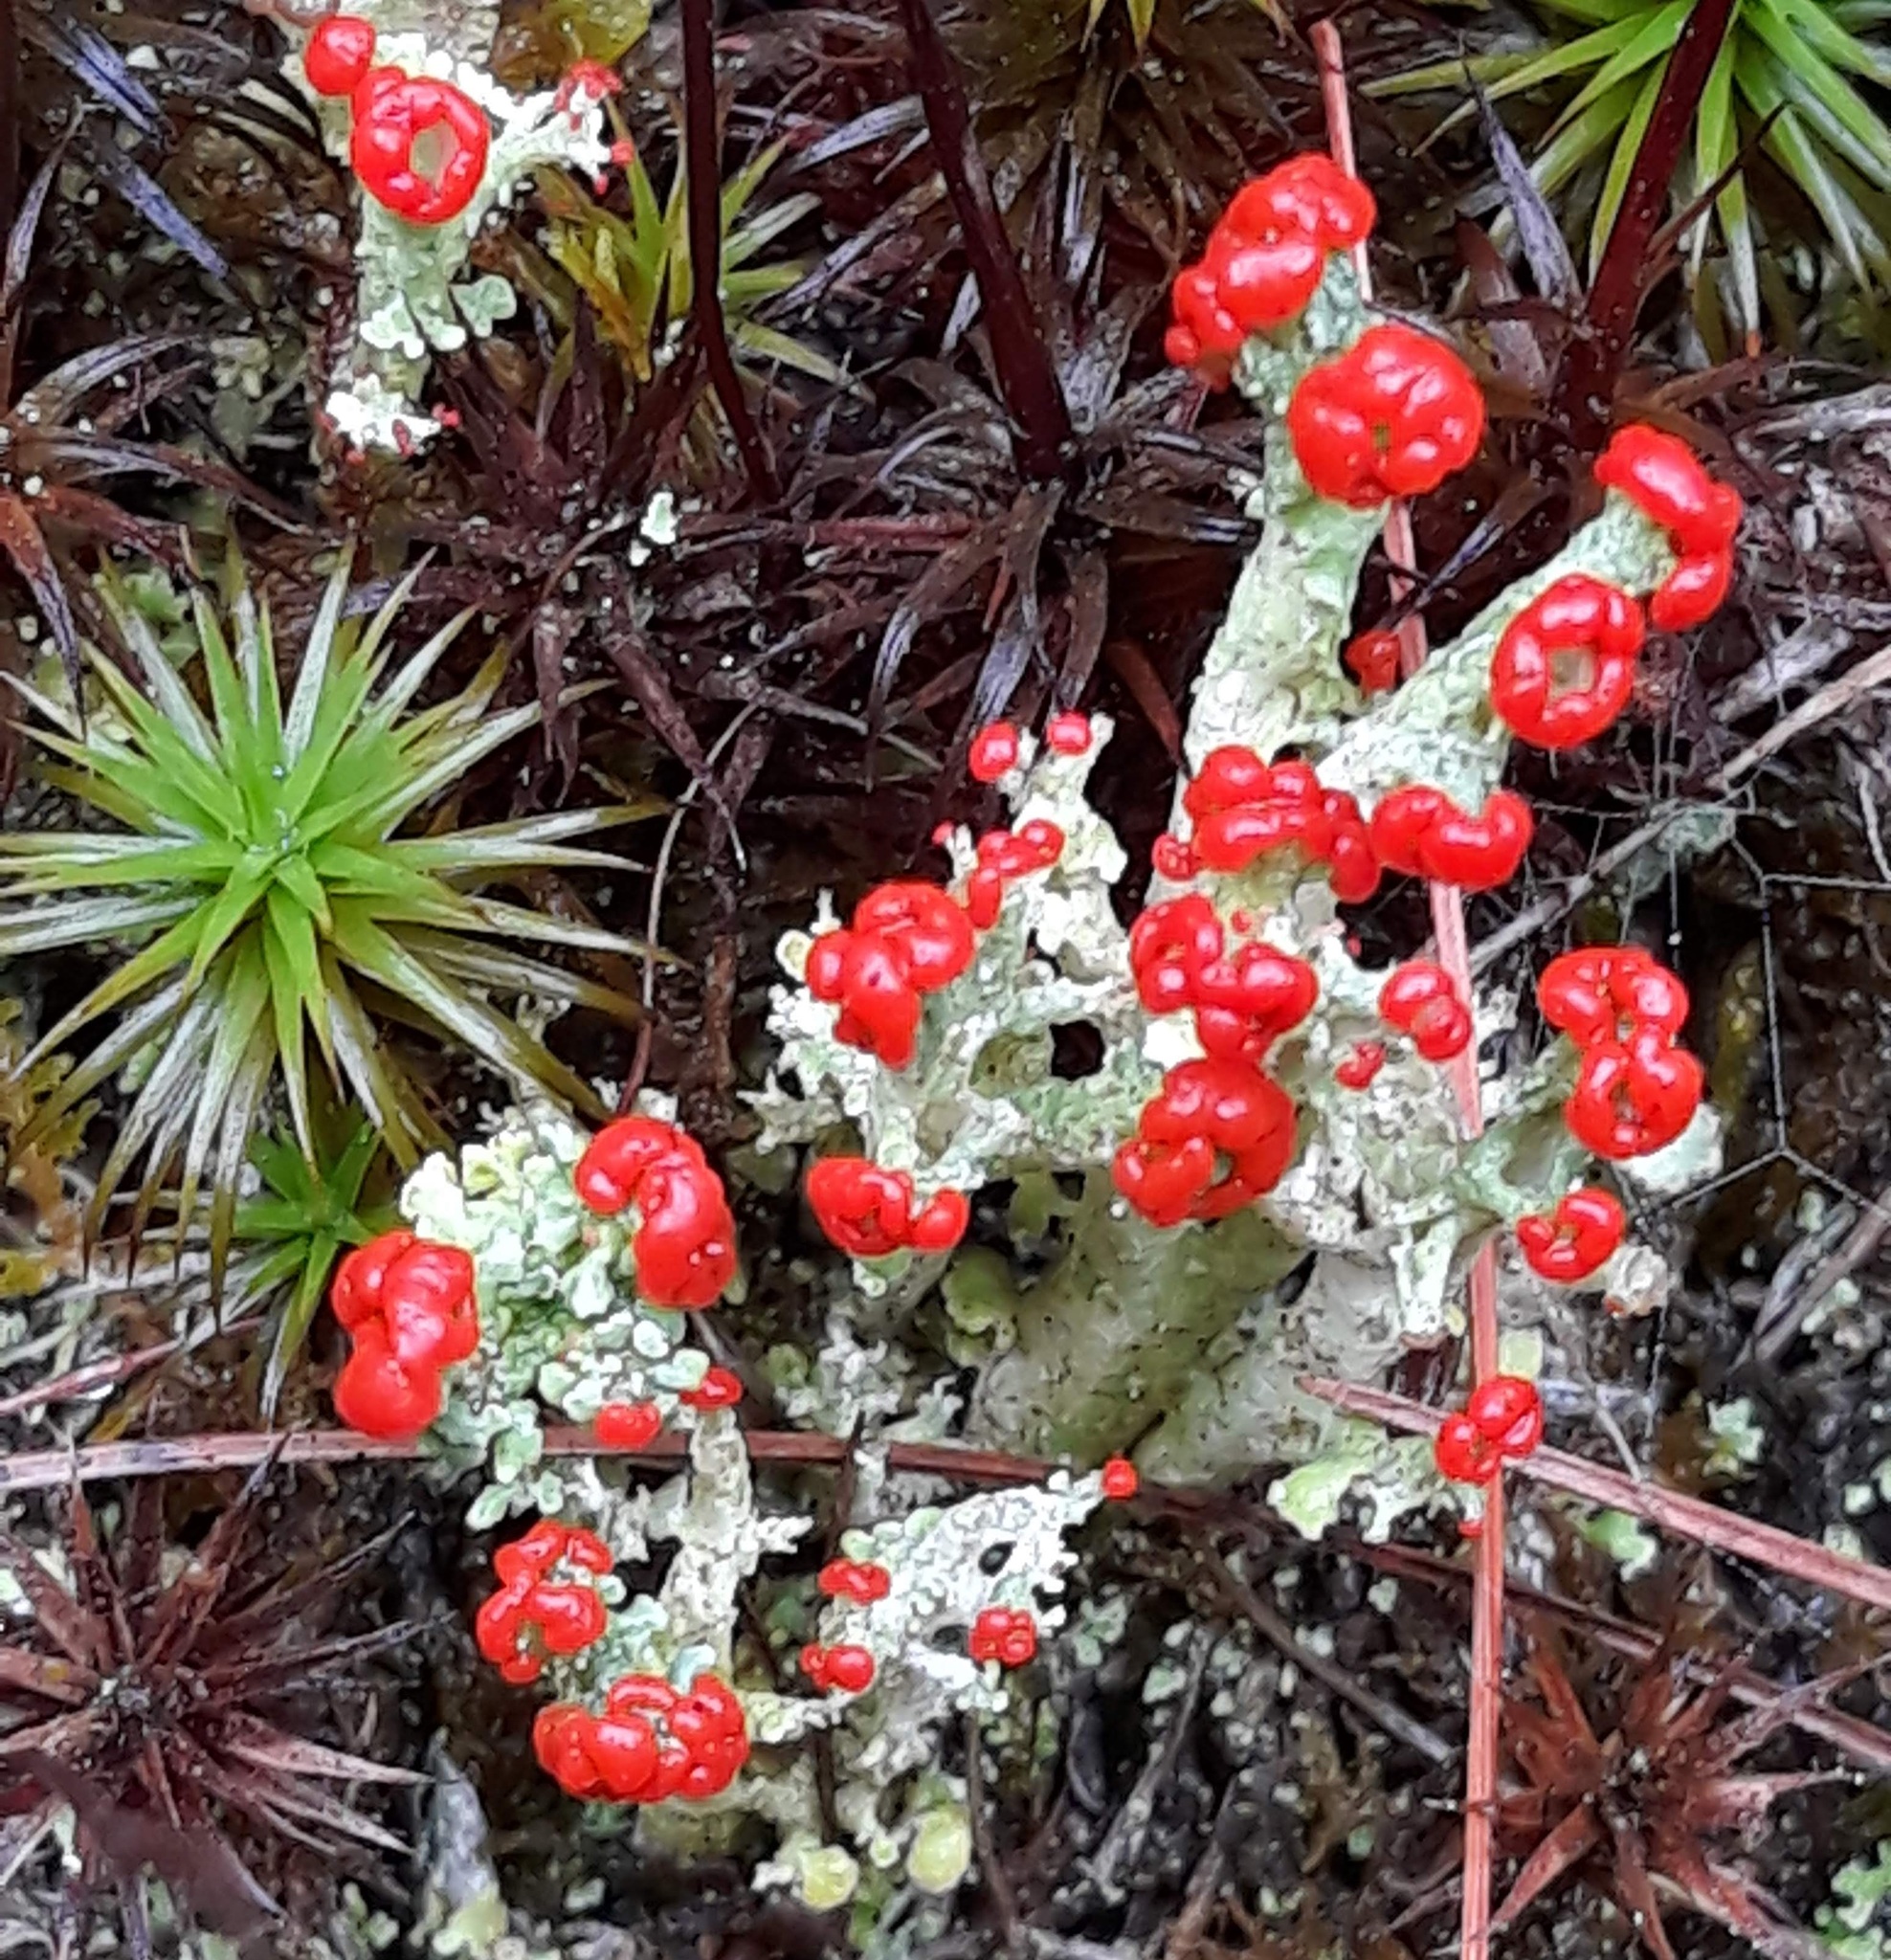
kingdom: Fungi
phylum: Ascomycota
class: Lecanoromycetes
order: Lecanorales
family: Cladoniaceae
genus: Cladonia
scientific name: Cladonia cristatella
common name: British soldier lichen
